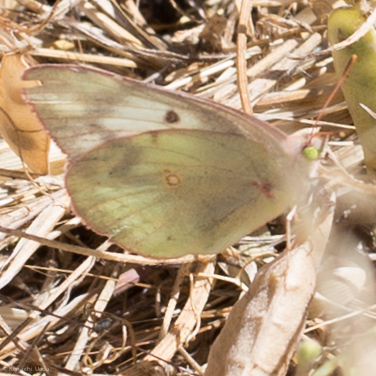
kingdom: Animalia
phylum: Arthropoda
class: Insecta
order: Lepidoptera
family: Pieridae
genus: Colias
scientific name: Colias eurytheme
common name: Alfalfa butterfly
